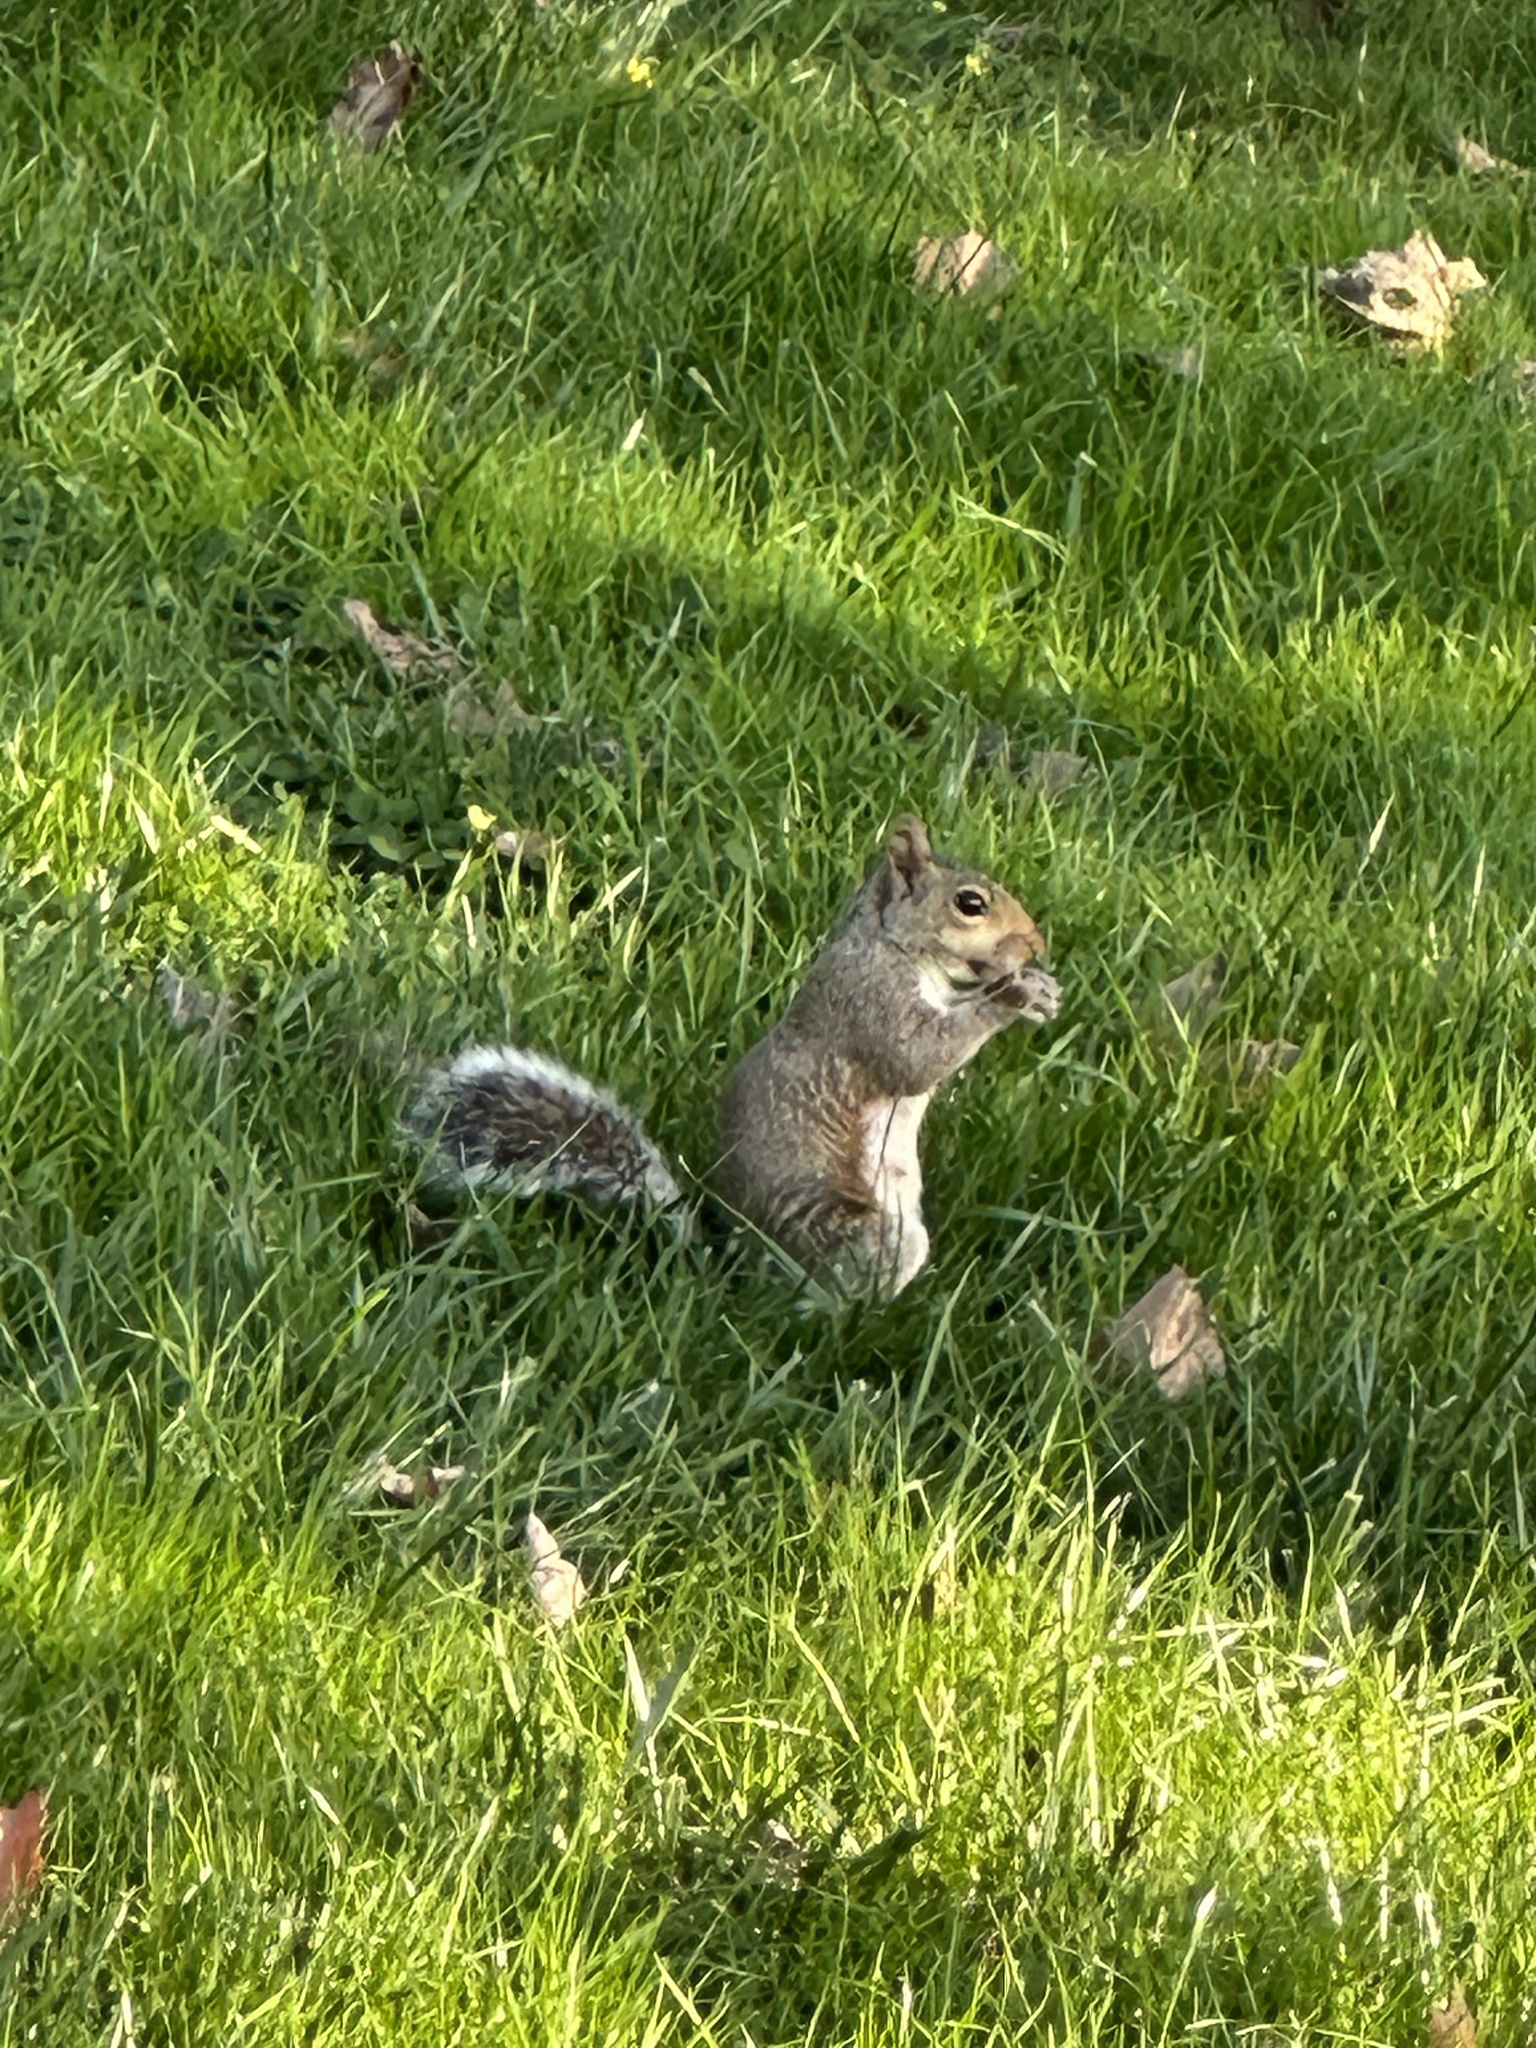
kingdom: Animalia
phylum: Chordata
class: Mammalia
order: Rodentia
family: Sciuridae
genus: Sciurus
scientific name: Sciurus carolinensis
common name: Eastern gray squirrel
